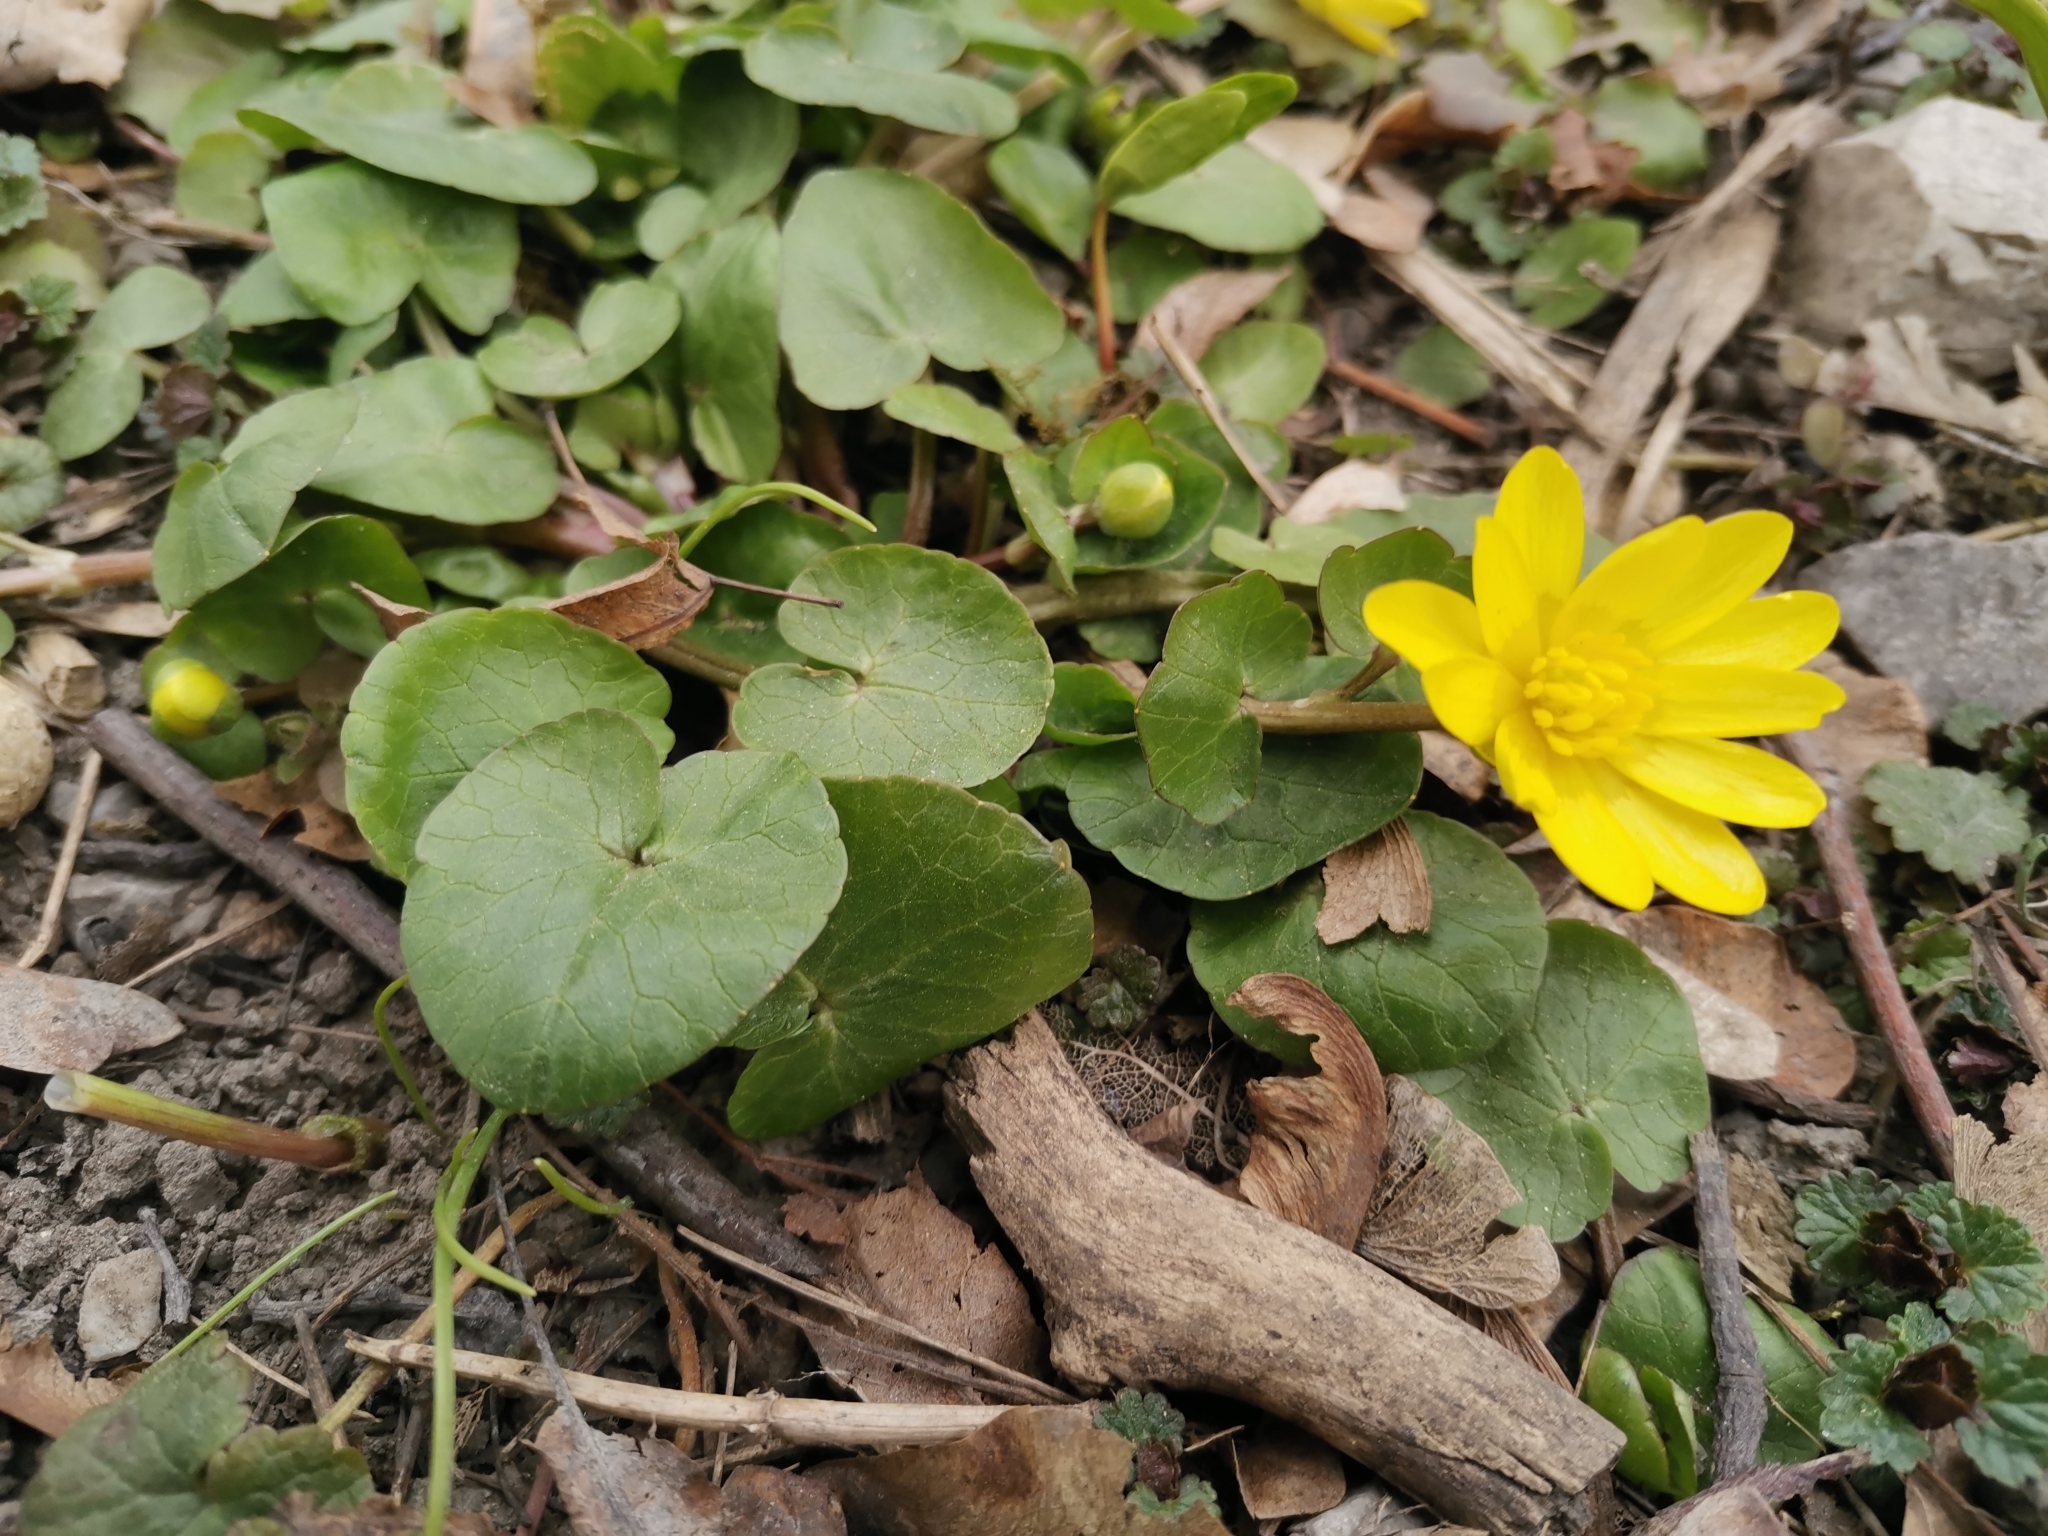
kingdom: Plantae
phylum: Tracheophyta
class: Magnoliopsida
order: Ranunculales
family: Ranunculaceae
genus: Ficaria
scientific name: Ficaria verna
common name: Lesser celandine
